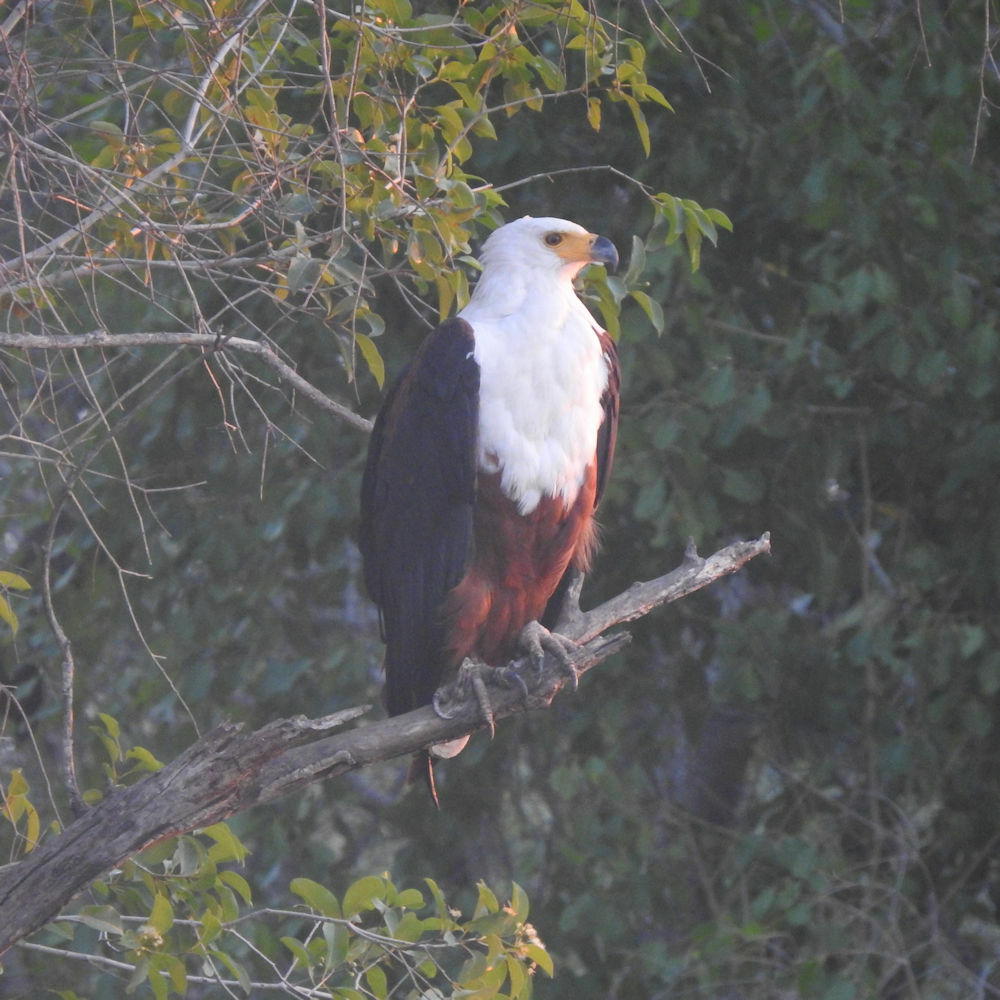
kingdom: Animalia
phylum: Chordata
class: Aves
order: Accipitriformes
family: Accipitridae
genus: Haliaeetus
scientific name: Haliaeetus vocifer
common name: African fish eagle
